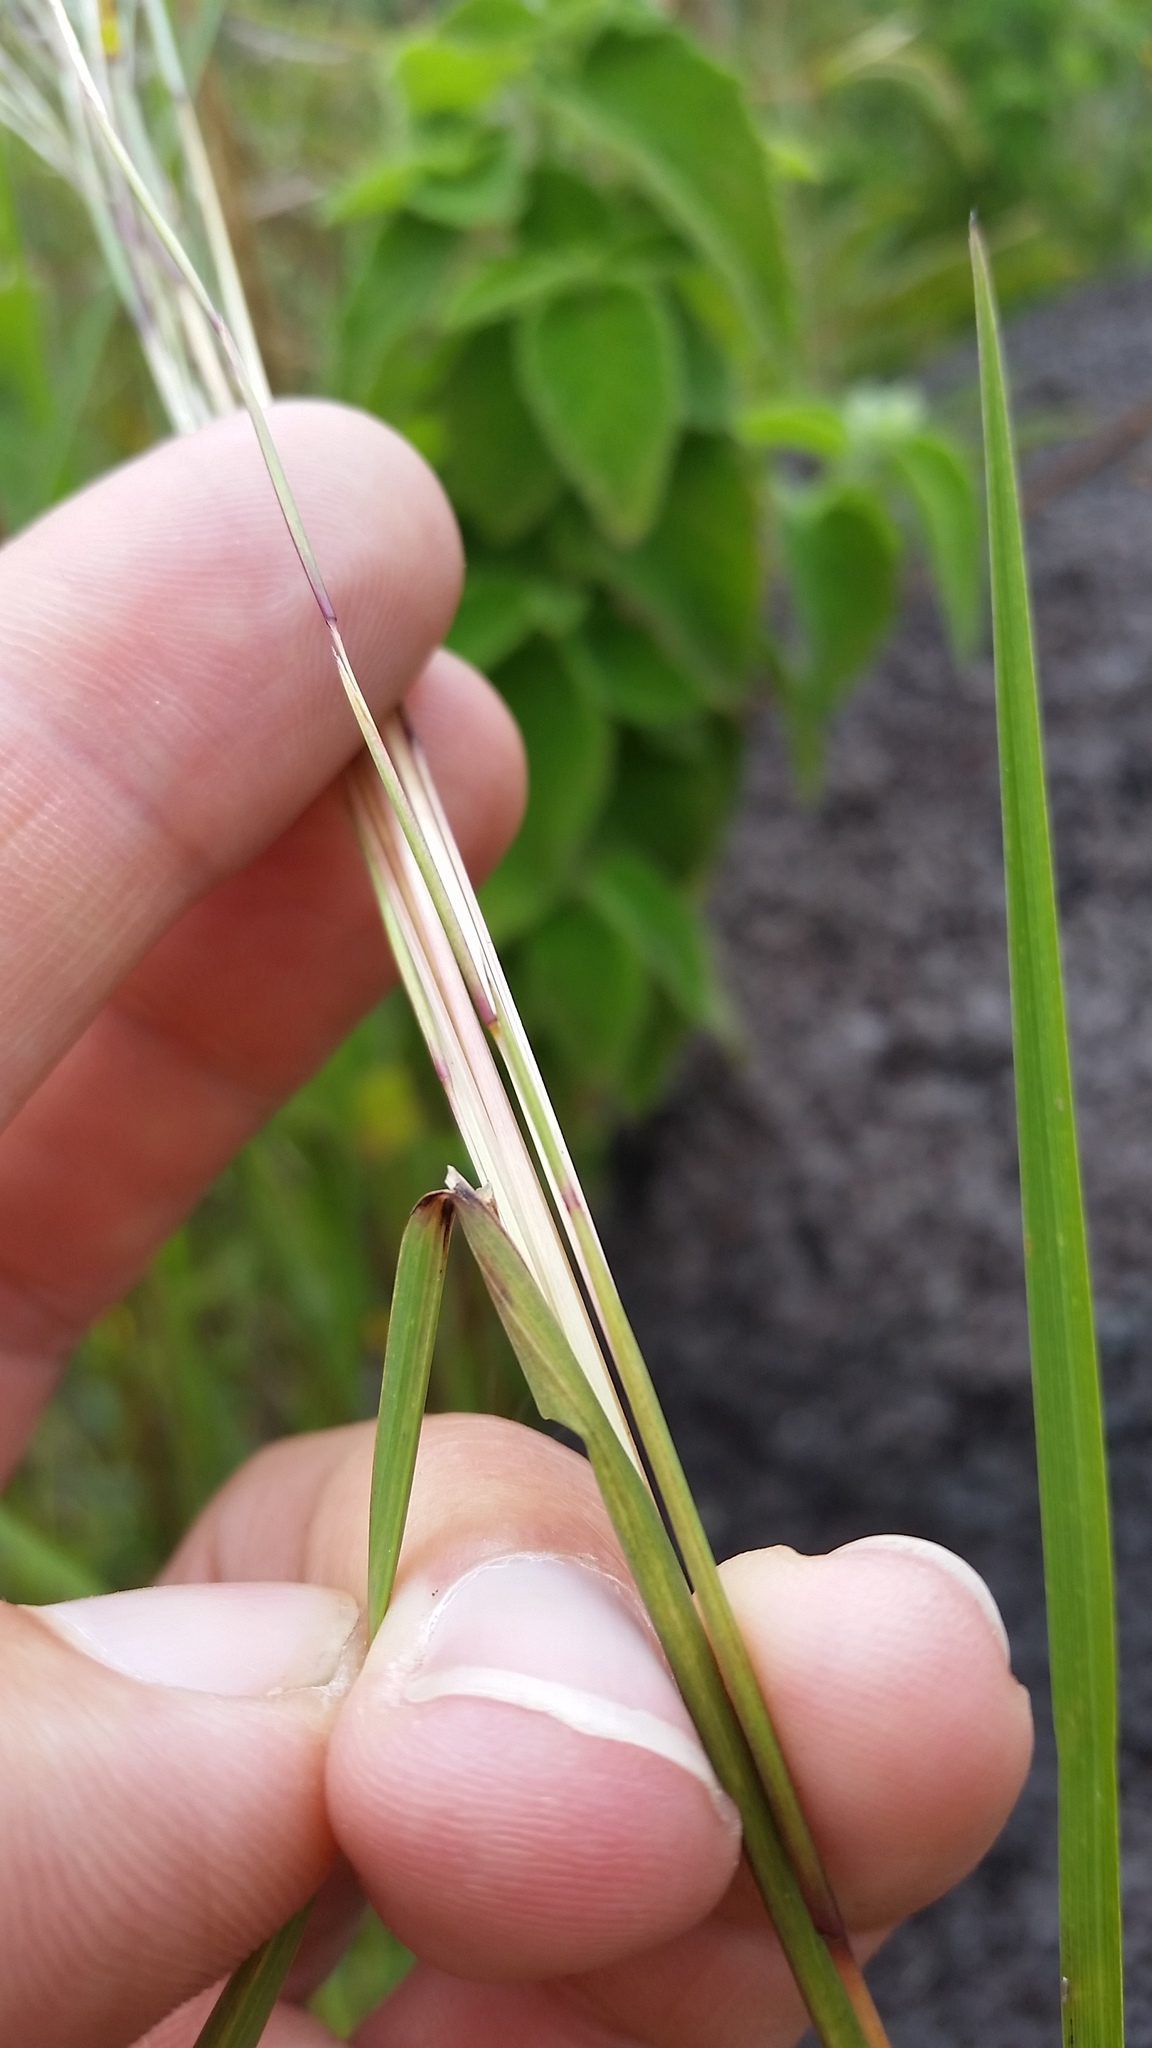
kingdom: Plantae
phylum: Tracheophyta
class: Liliopsida
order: Poales
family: Poaceae
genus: Schizachyrium
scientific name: Schizachyrium microstachyum
